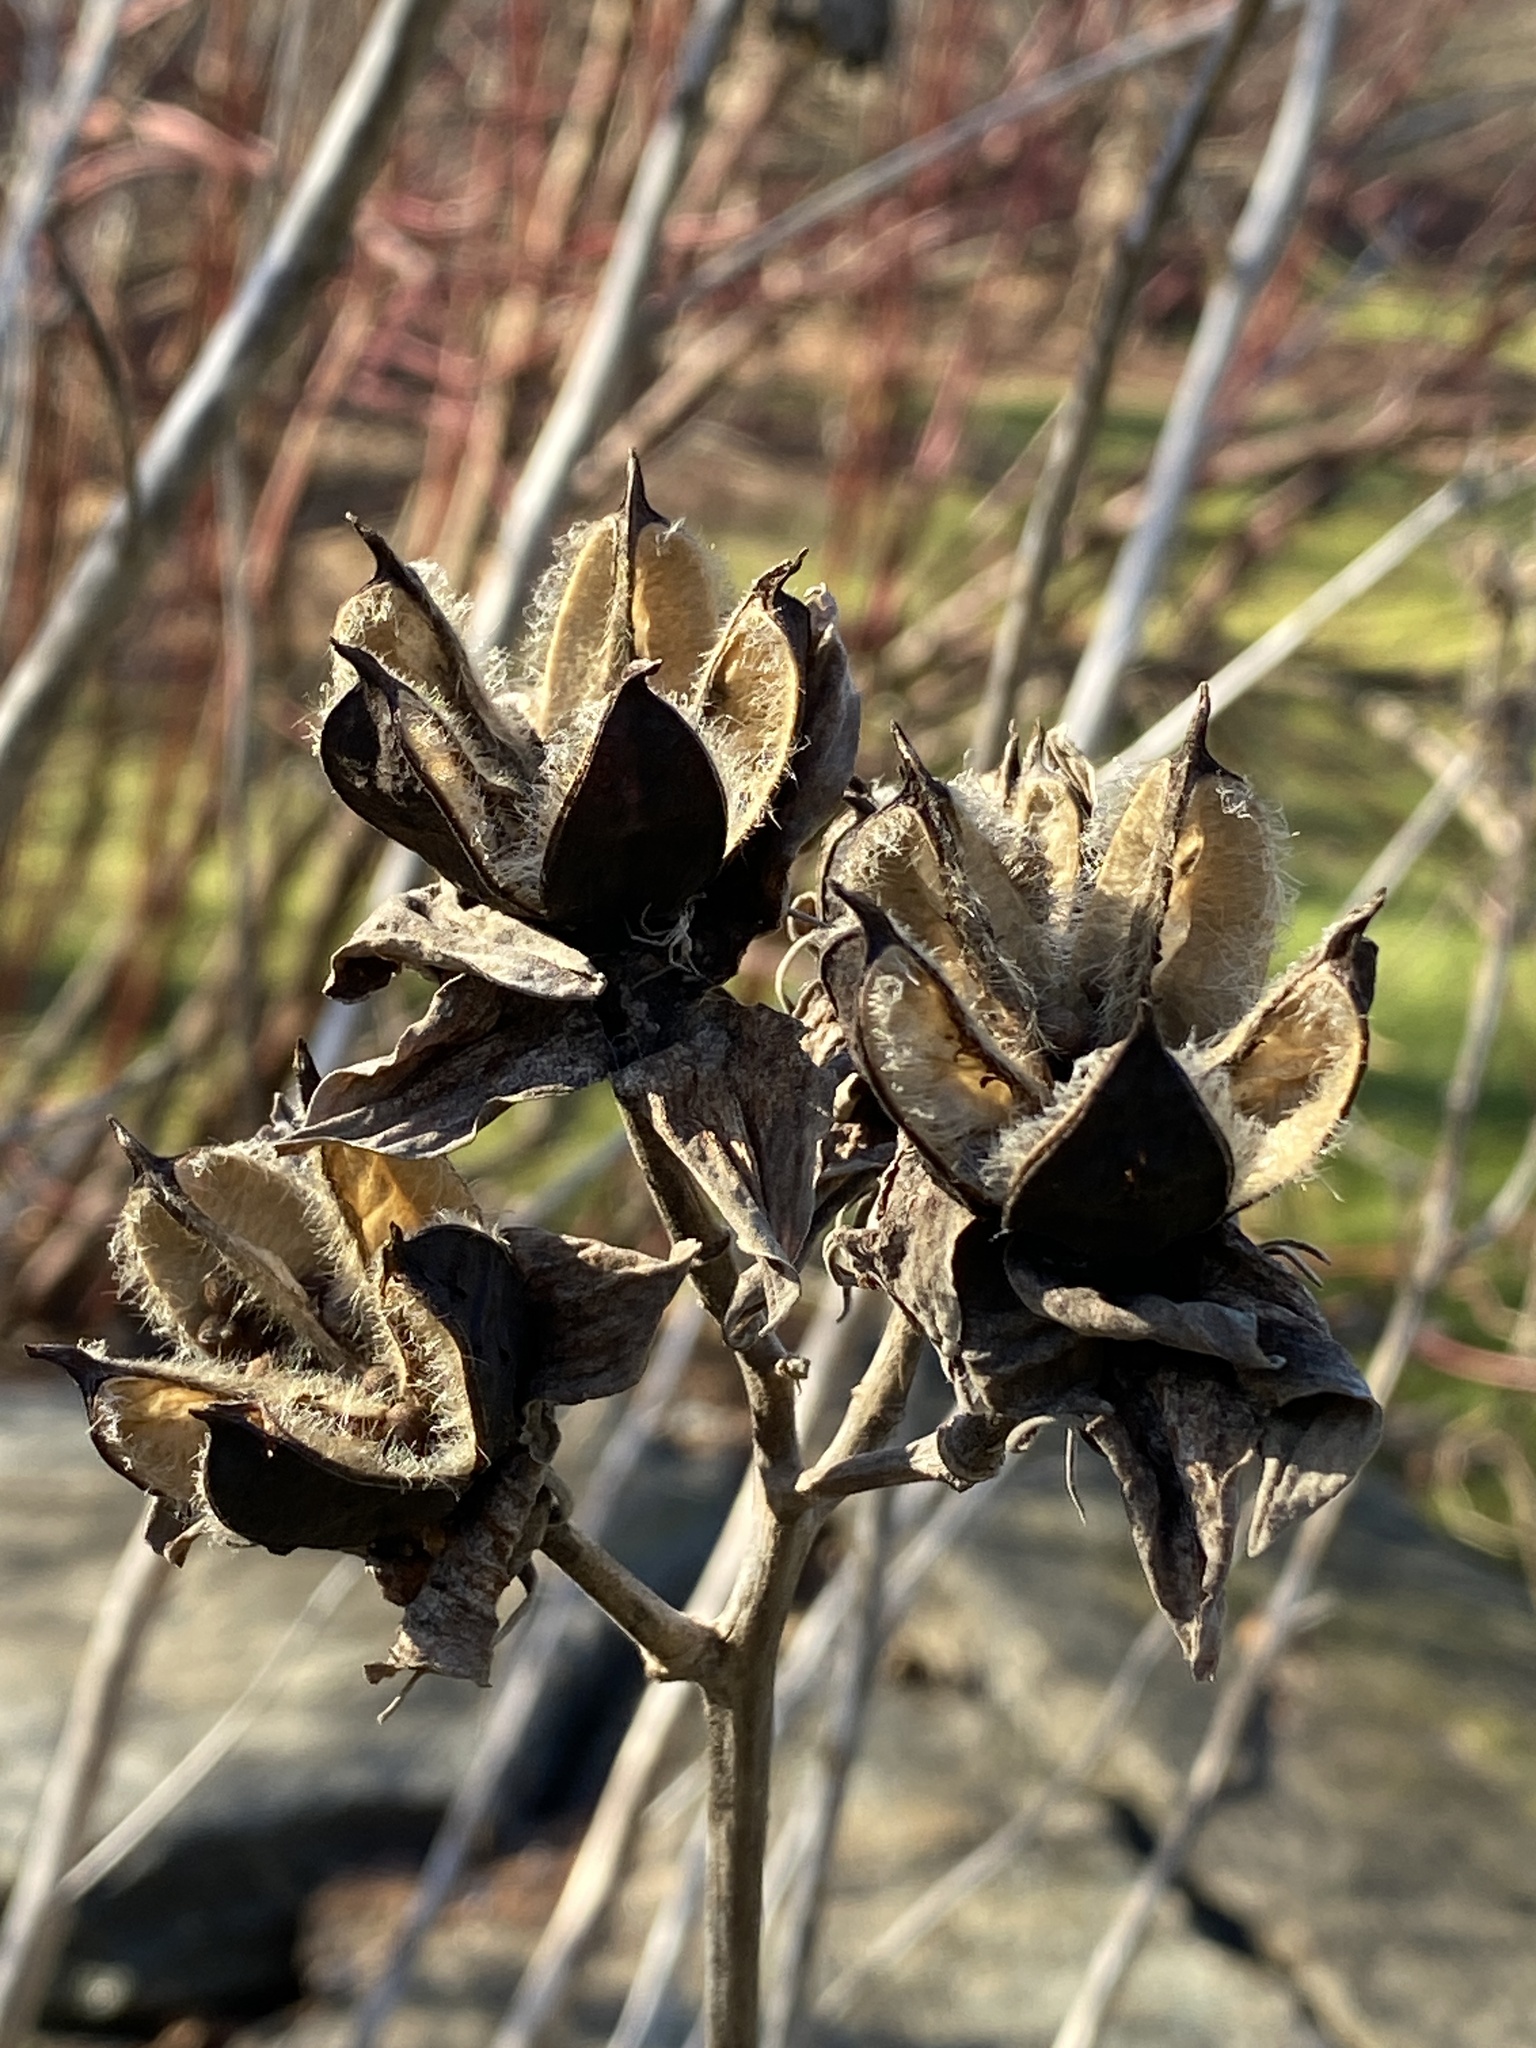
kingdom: Plantae
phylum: Tracheophyta
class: Magnoliopsida
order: Malvales
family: Malvaceae
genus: Hibiscus
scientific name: Hibiscus moscheutos
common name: Common rose-mallow
